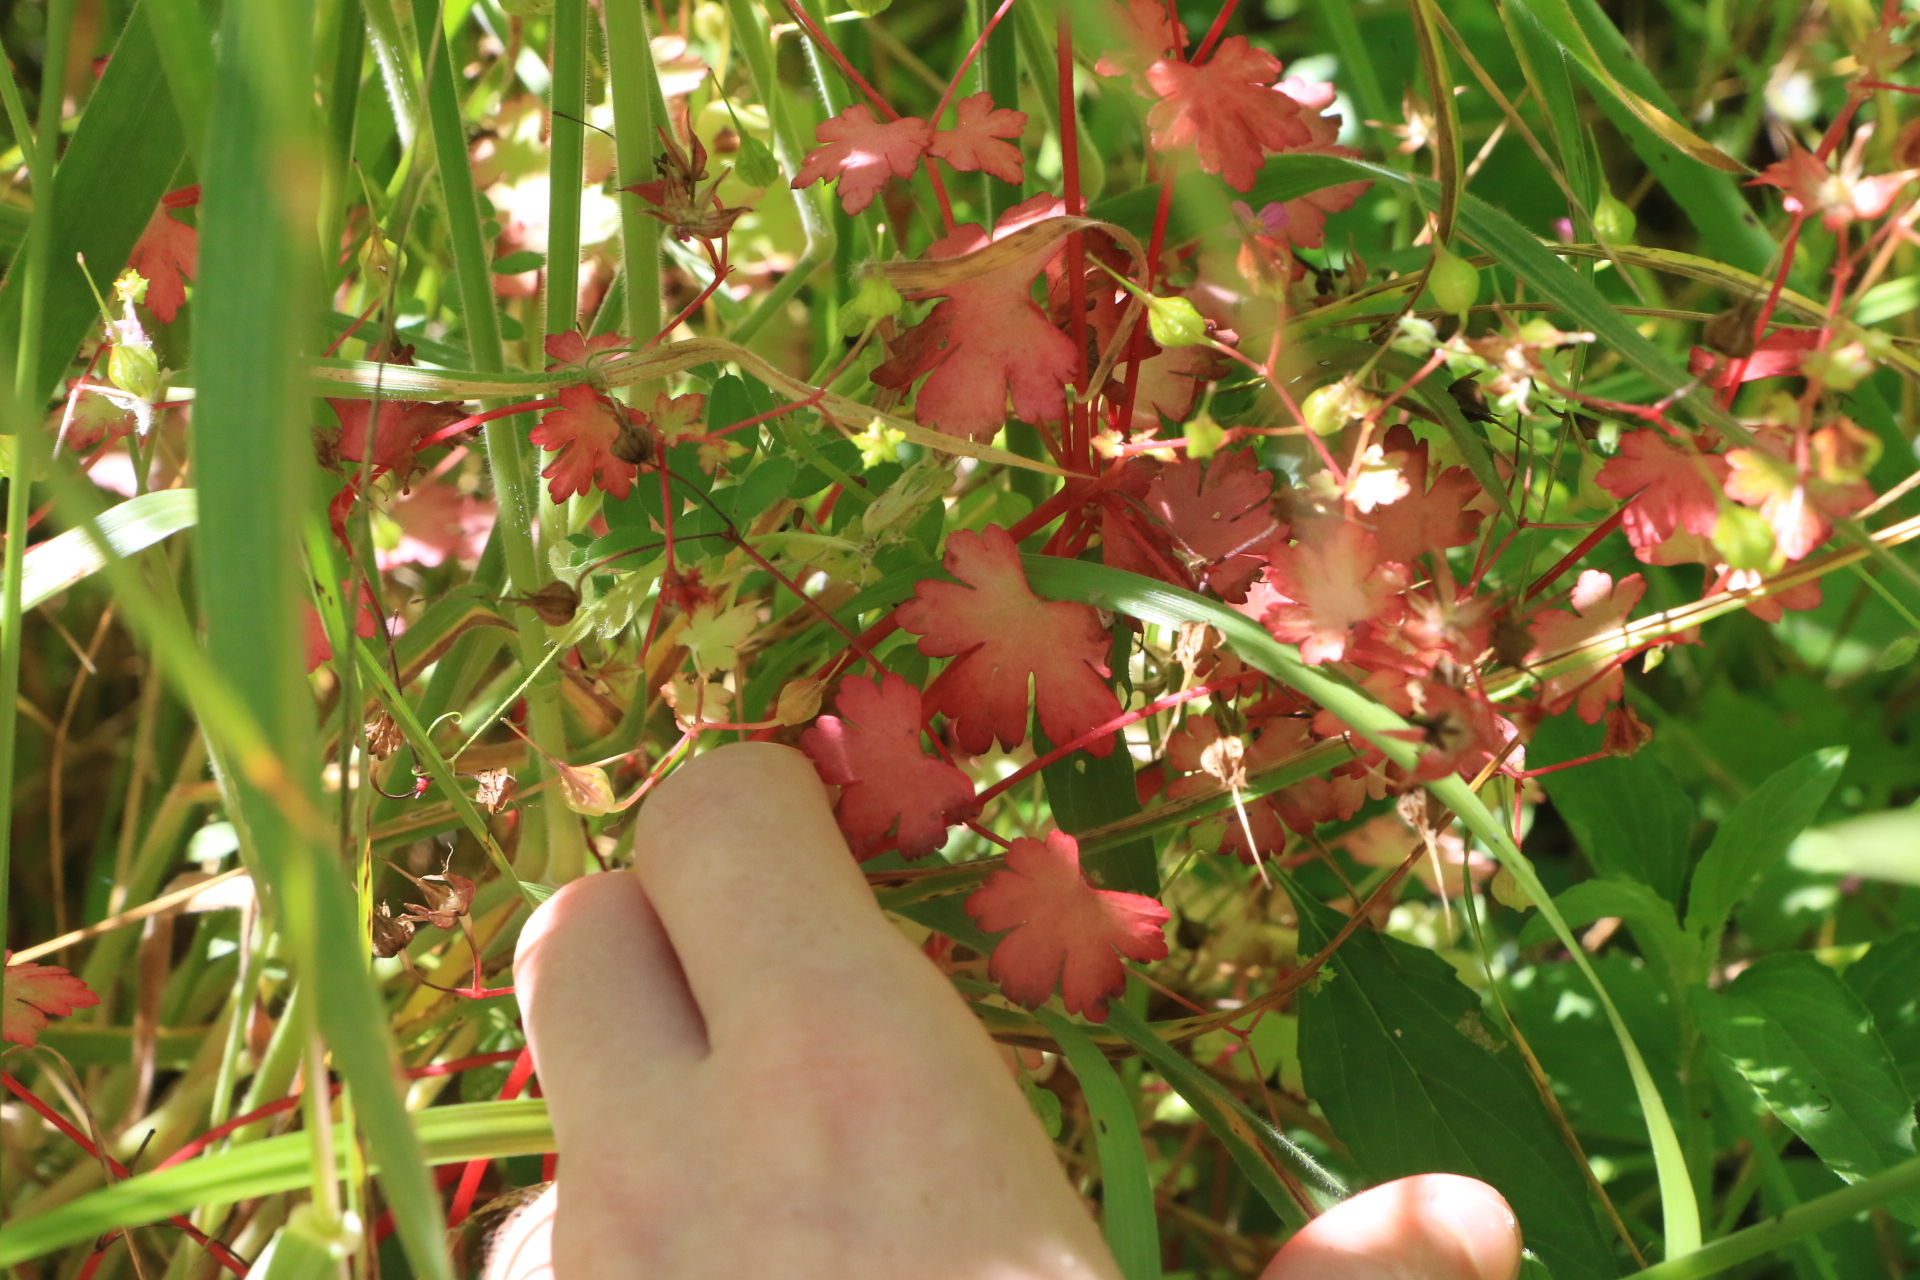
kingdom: Plantae
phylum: Tracheophyta
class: Magnoliopsida
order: Geraniales
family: Geraniaceae
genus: Geranium
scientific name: Geranium lucidum
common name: Shining crane's-bill
